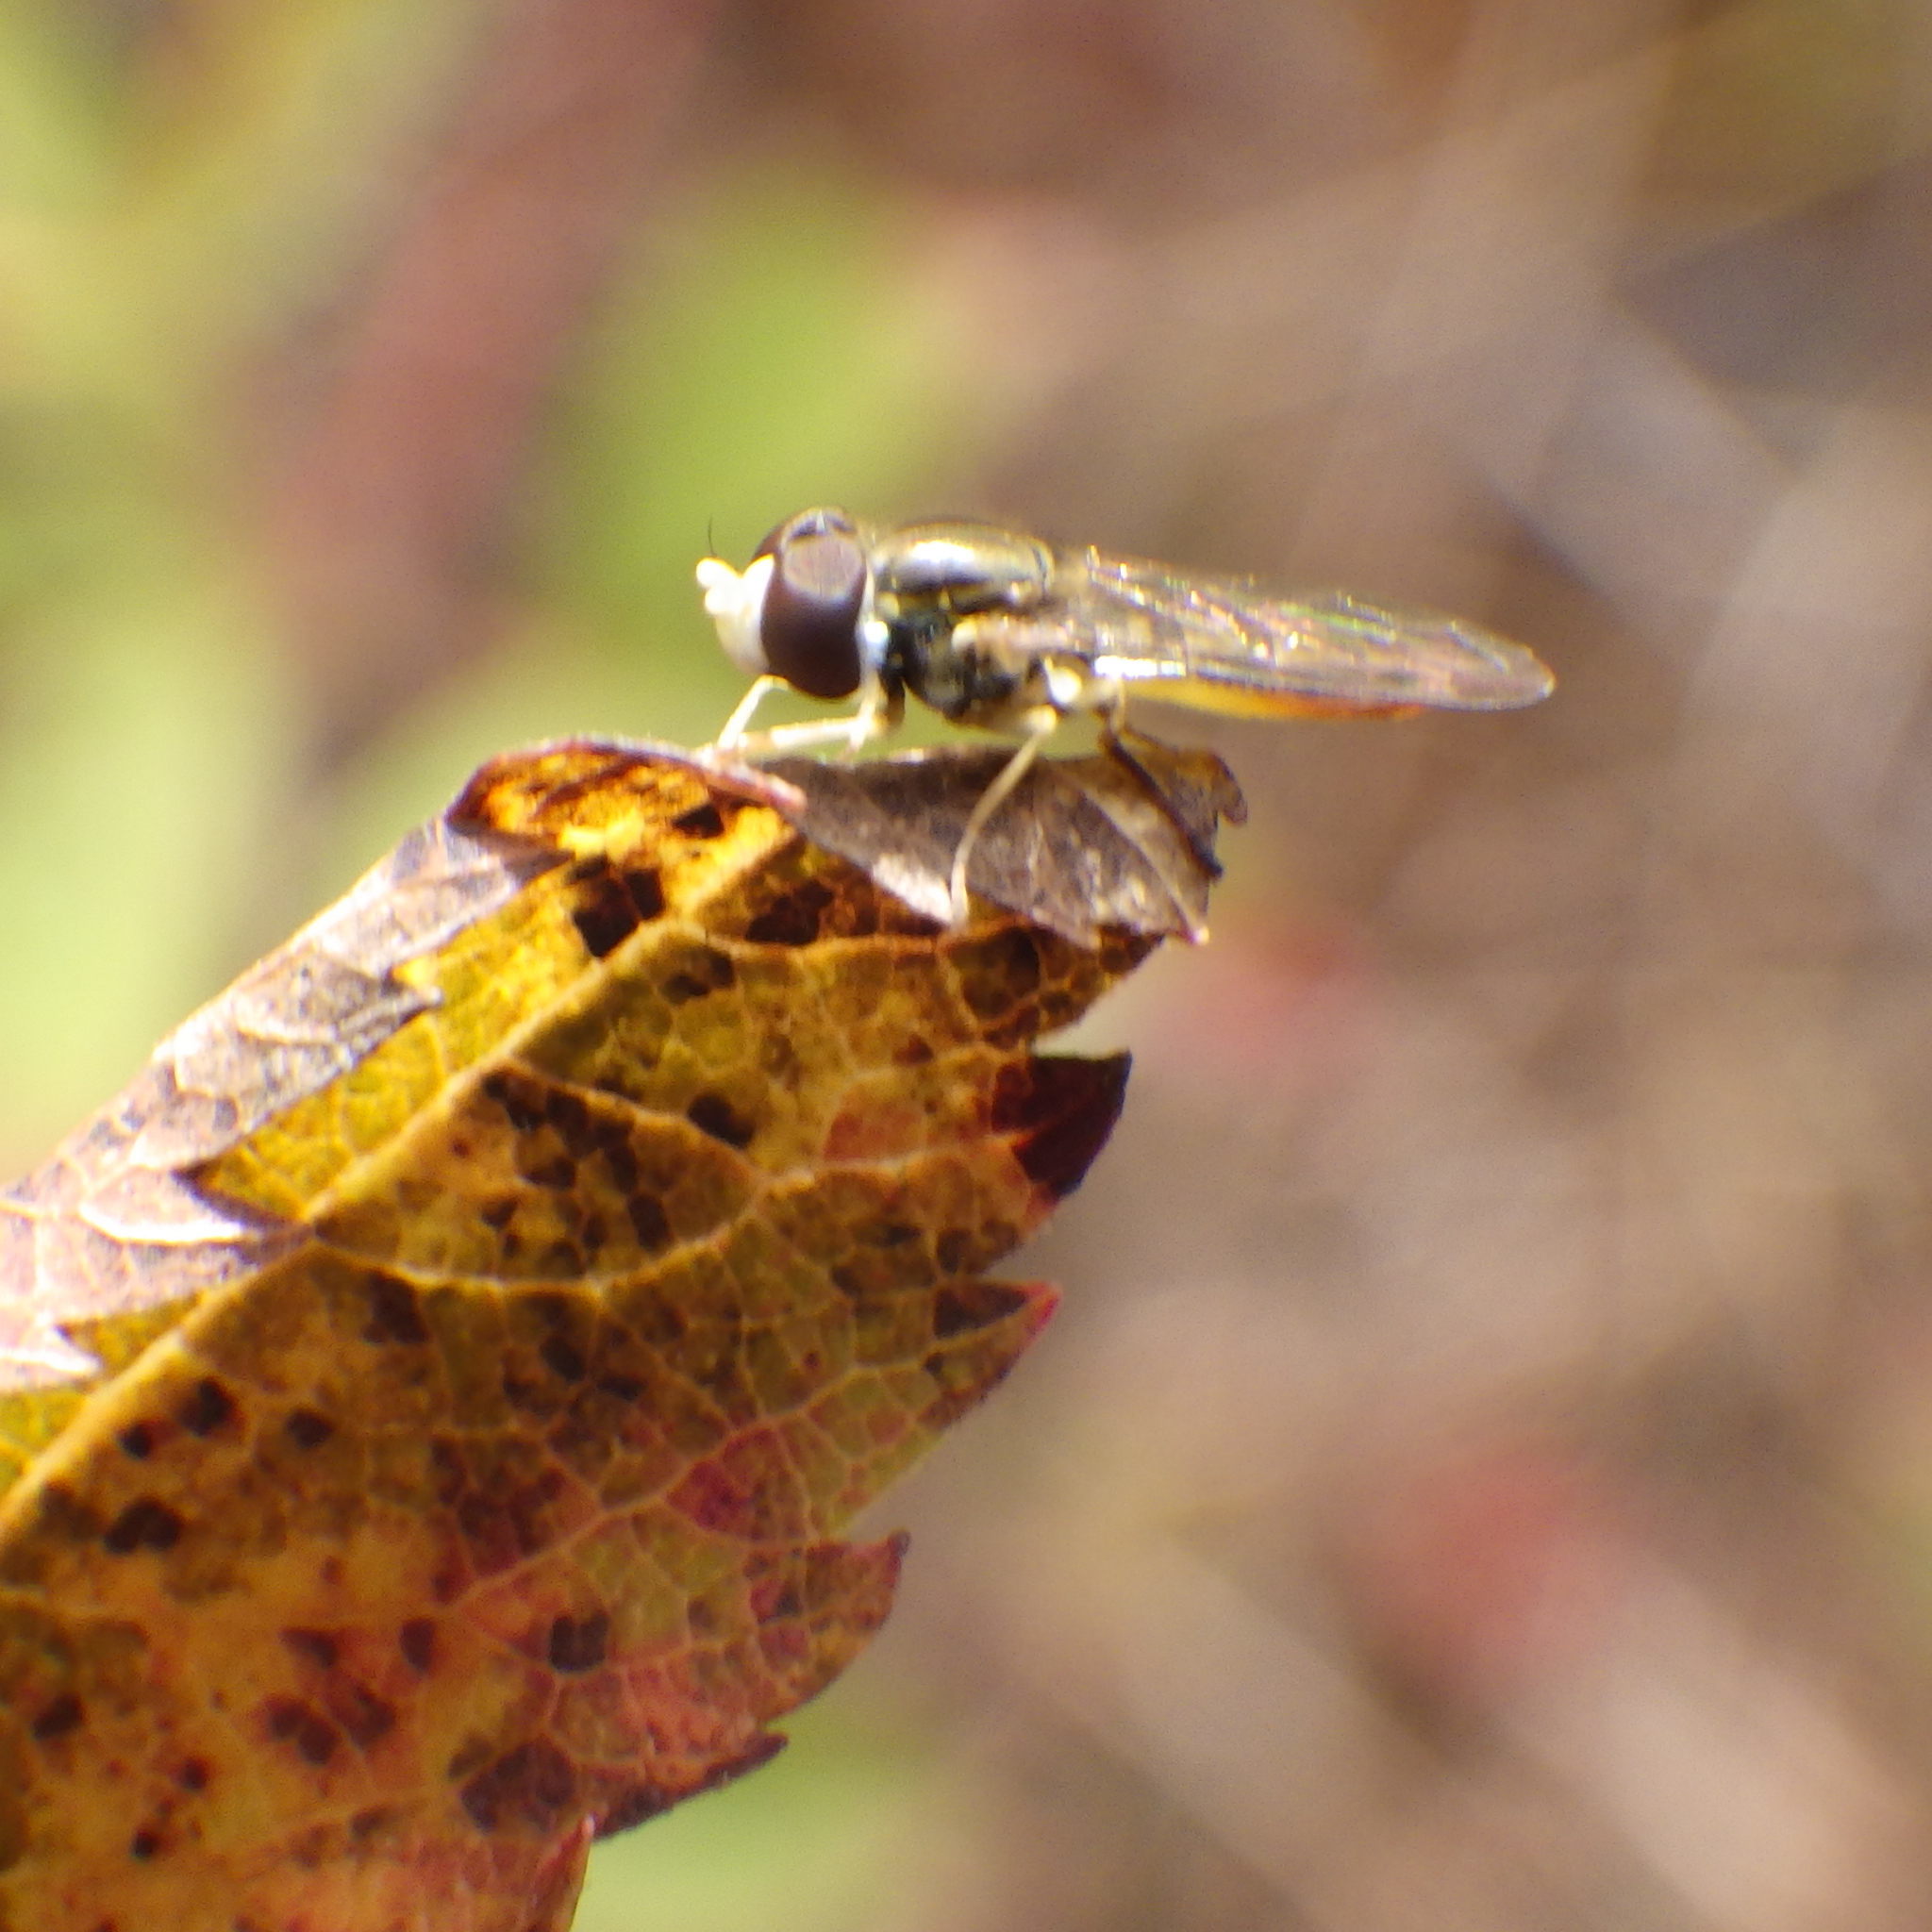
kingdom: Animalia
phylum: Arthropoda
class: Insecta
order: Diptera
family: Syrphidae
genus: Toxomerus
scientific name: Toxomerus marginatus
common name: Syrphid fly
